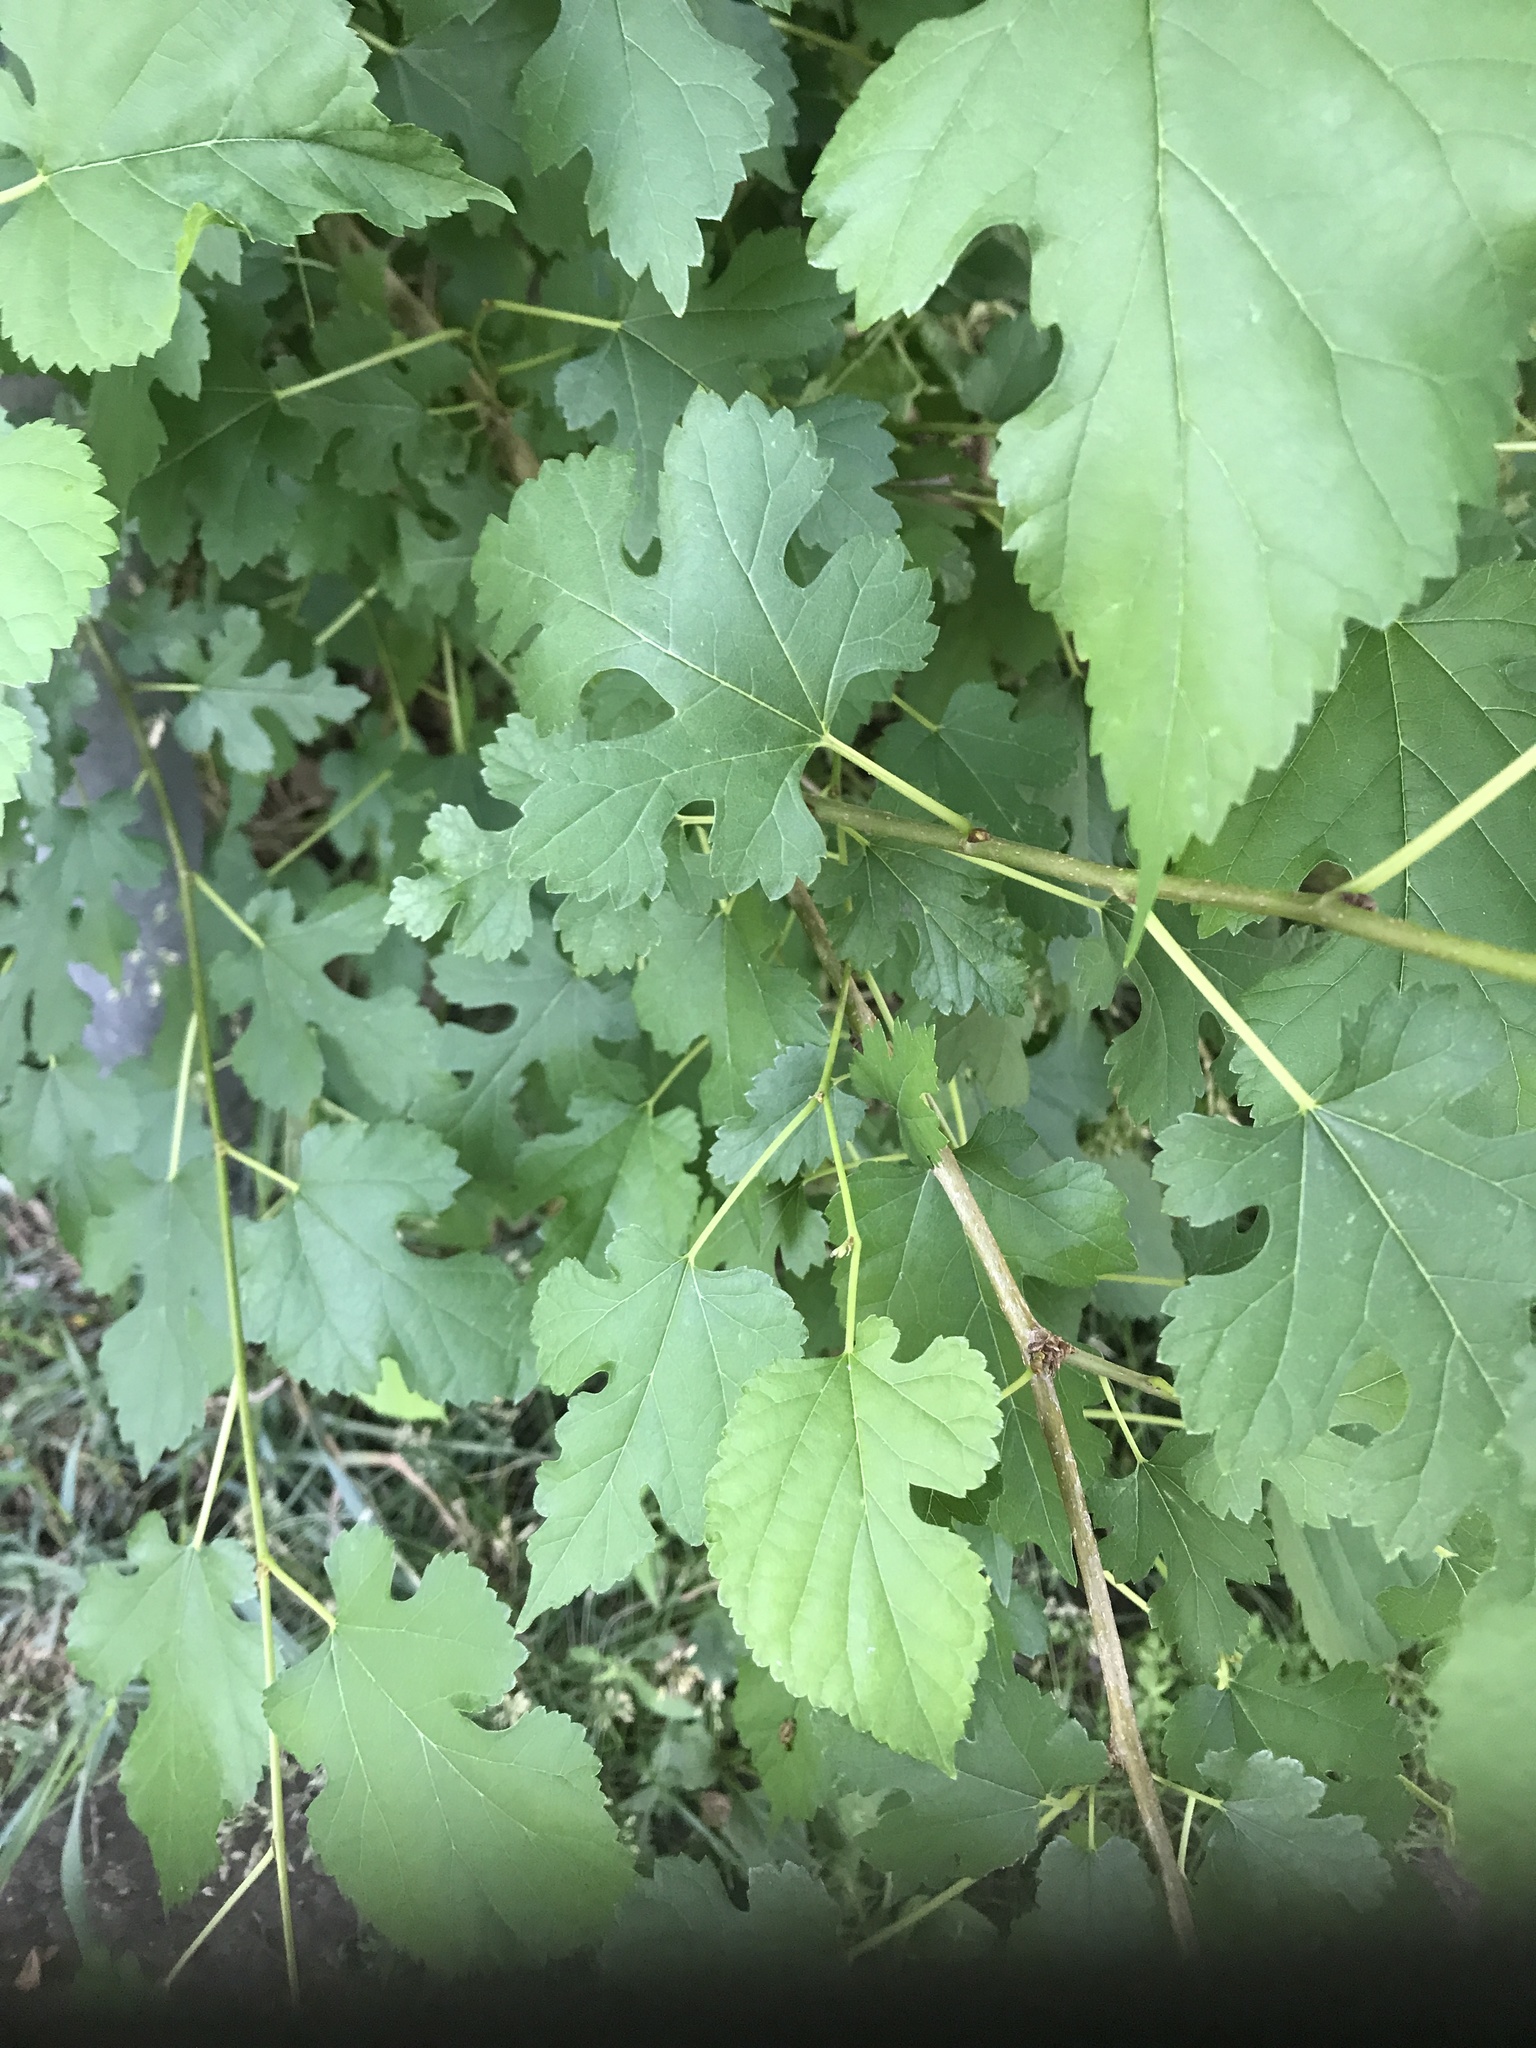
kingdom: Plantae
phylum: Tracheophyta
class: Magnoliopsida
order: Rosales
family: Moraceae
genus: Morus
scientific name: Morus alba
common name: White mulberry
